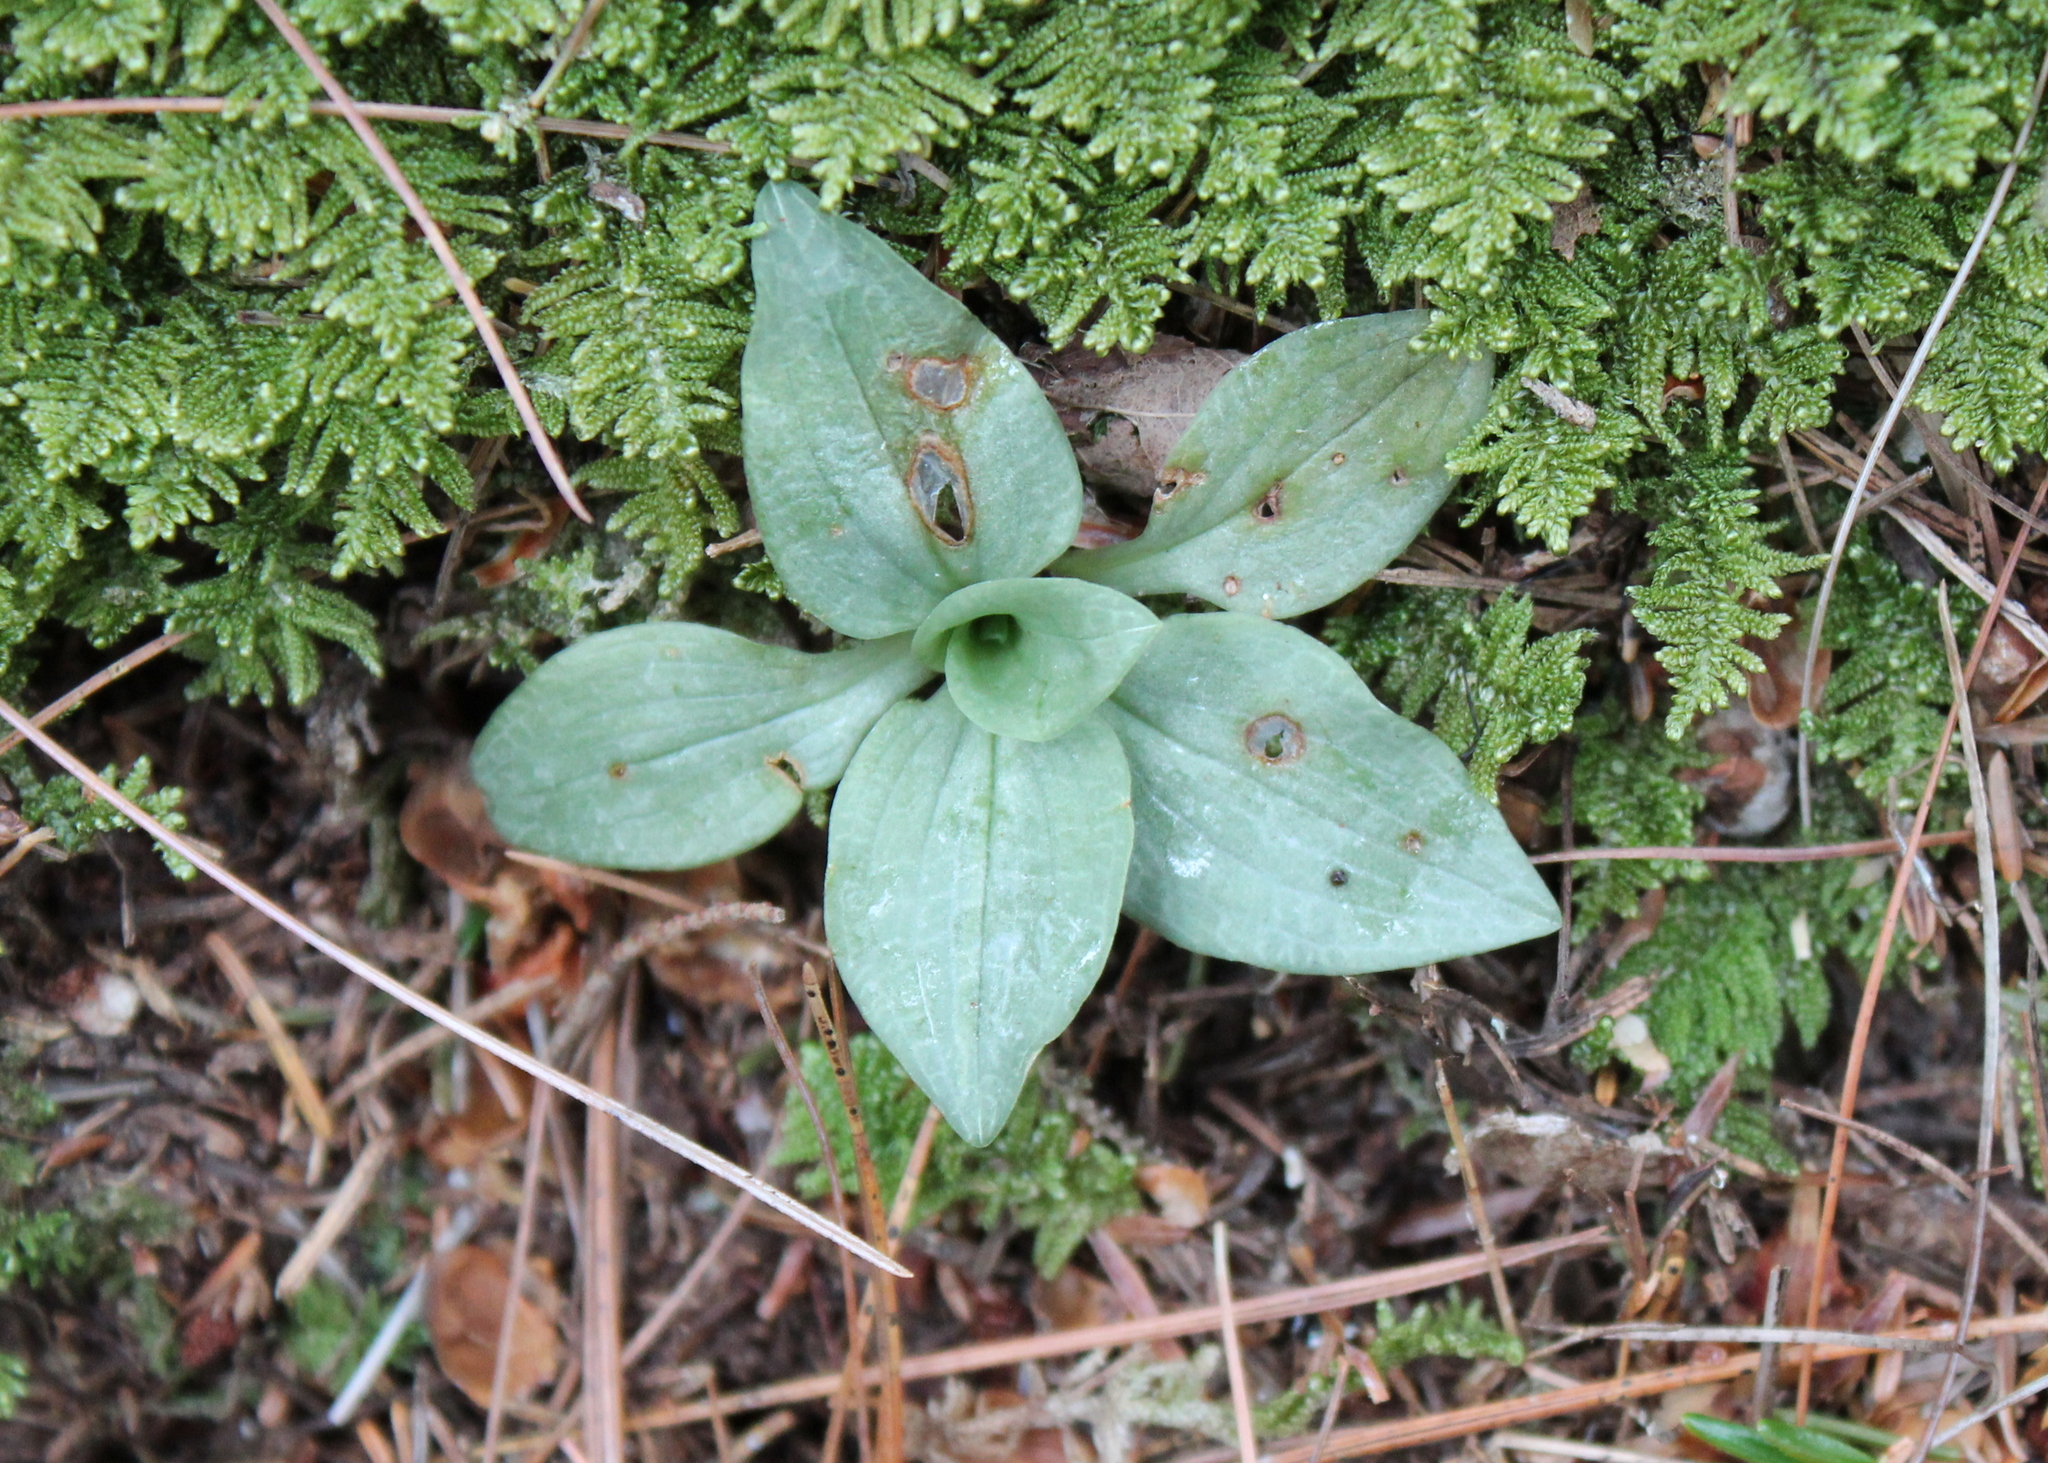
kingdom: Plantae
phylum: Tracheophyta
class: Liliopsida
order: Asparagales
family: Orchidaceae
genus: Goodyera
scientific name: Goodyera tesselata
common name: Checkered rattlesnake-plantain
